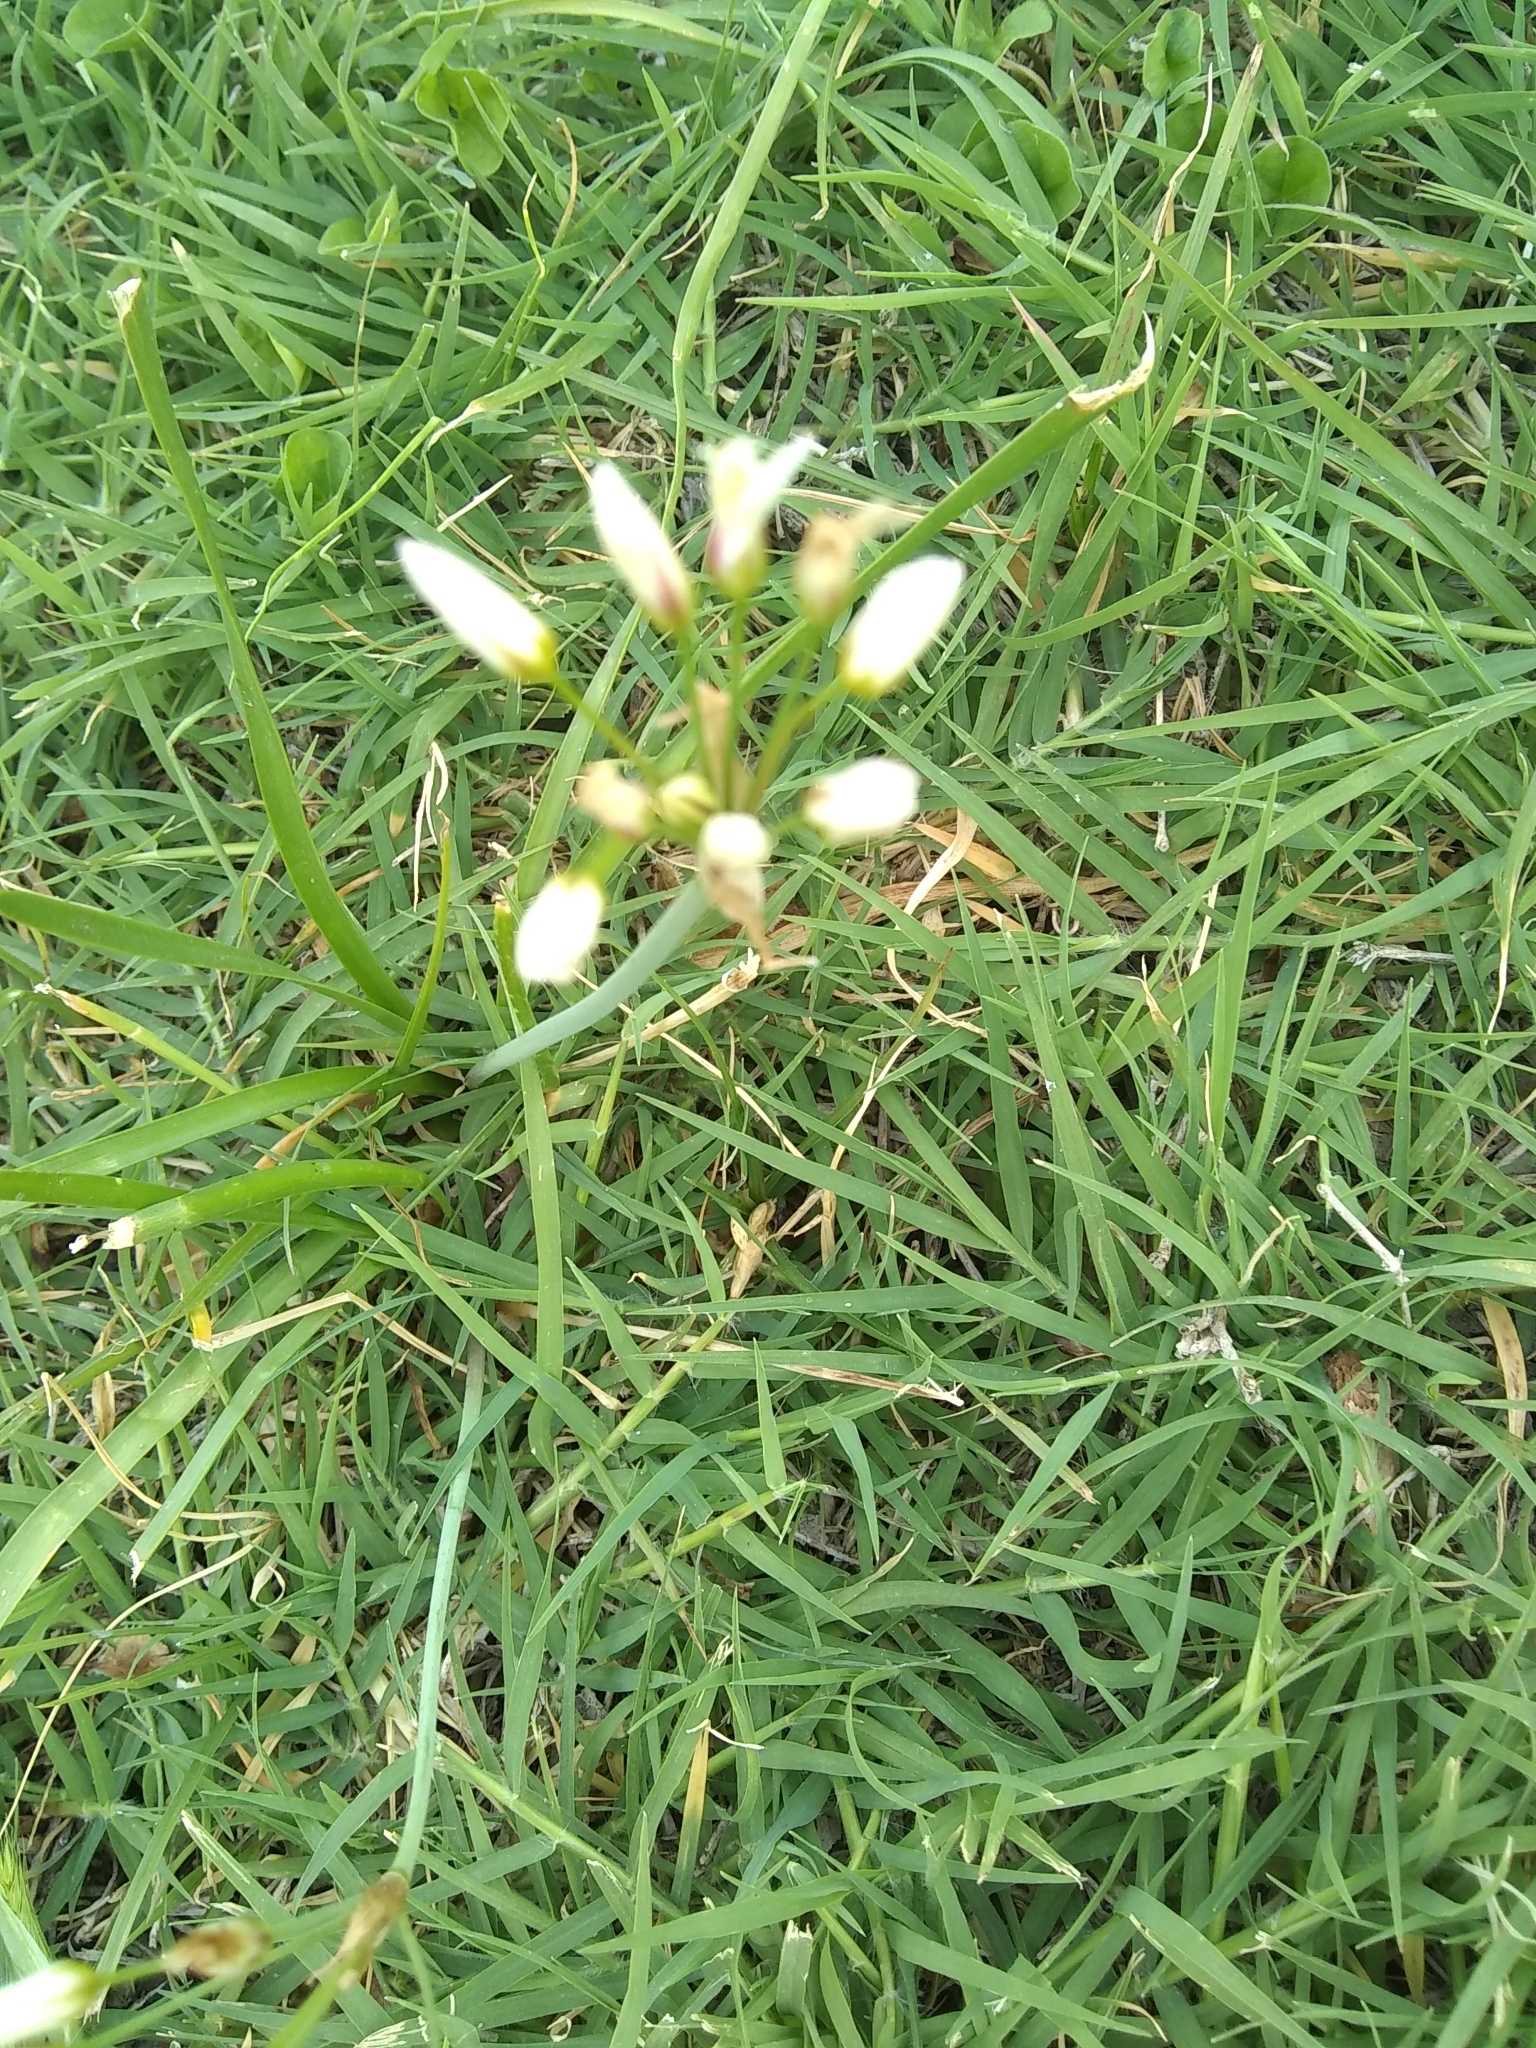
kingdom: Plantae
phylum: Tracheophyta
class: Liliopsida
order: Asparagales
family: Amaryllidaceae
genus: Nothoscordum
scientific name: Nothoscordum bivalve
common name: Crow-poison
